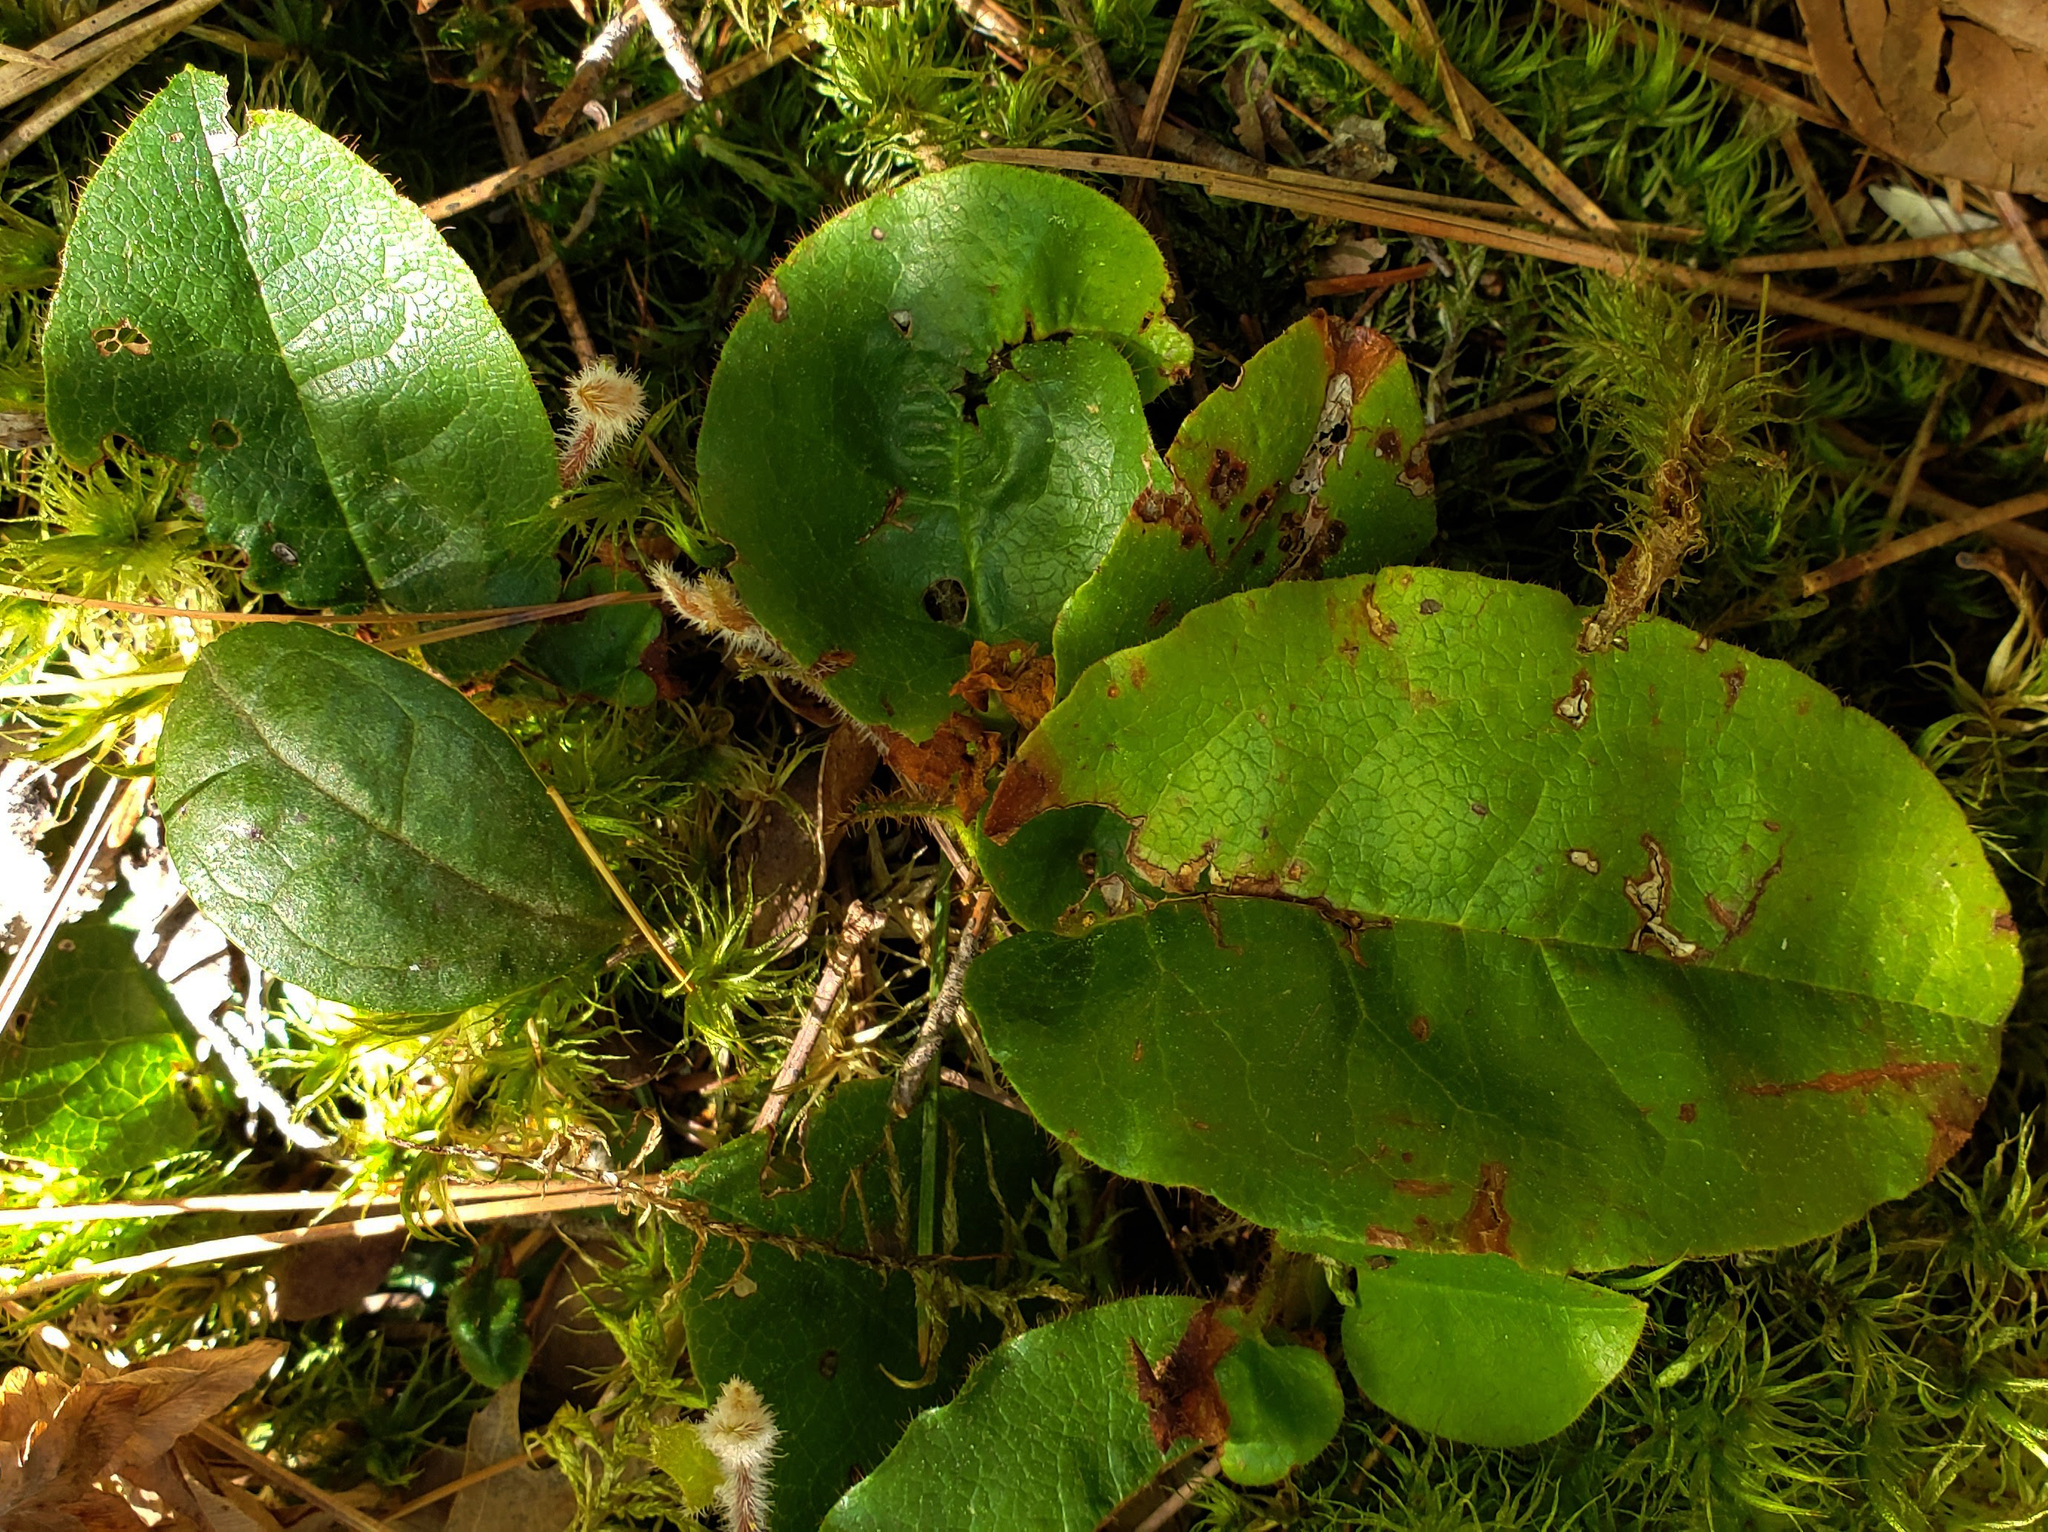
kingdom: Plantae
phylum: Tracheophyta
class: Magnoliopsida
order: Ericales
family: Ericaceae
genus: Epigaea
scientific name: Epigaea repens
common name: Gravelroot
